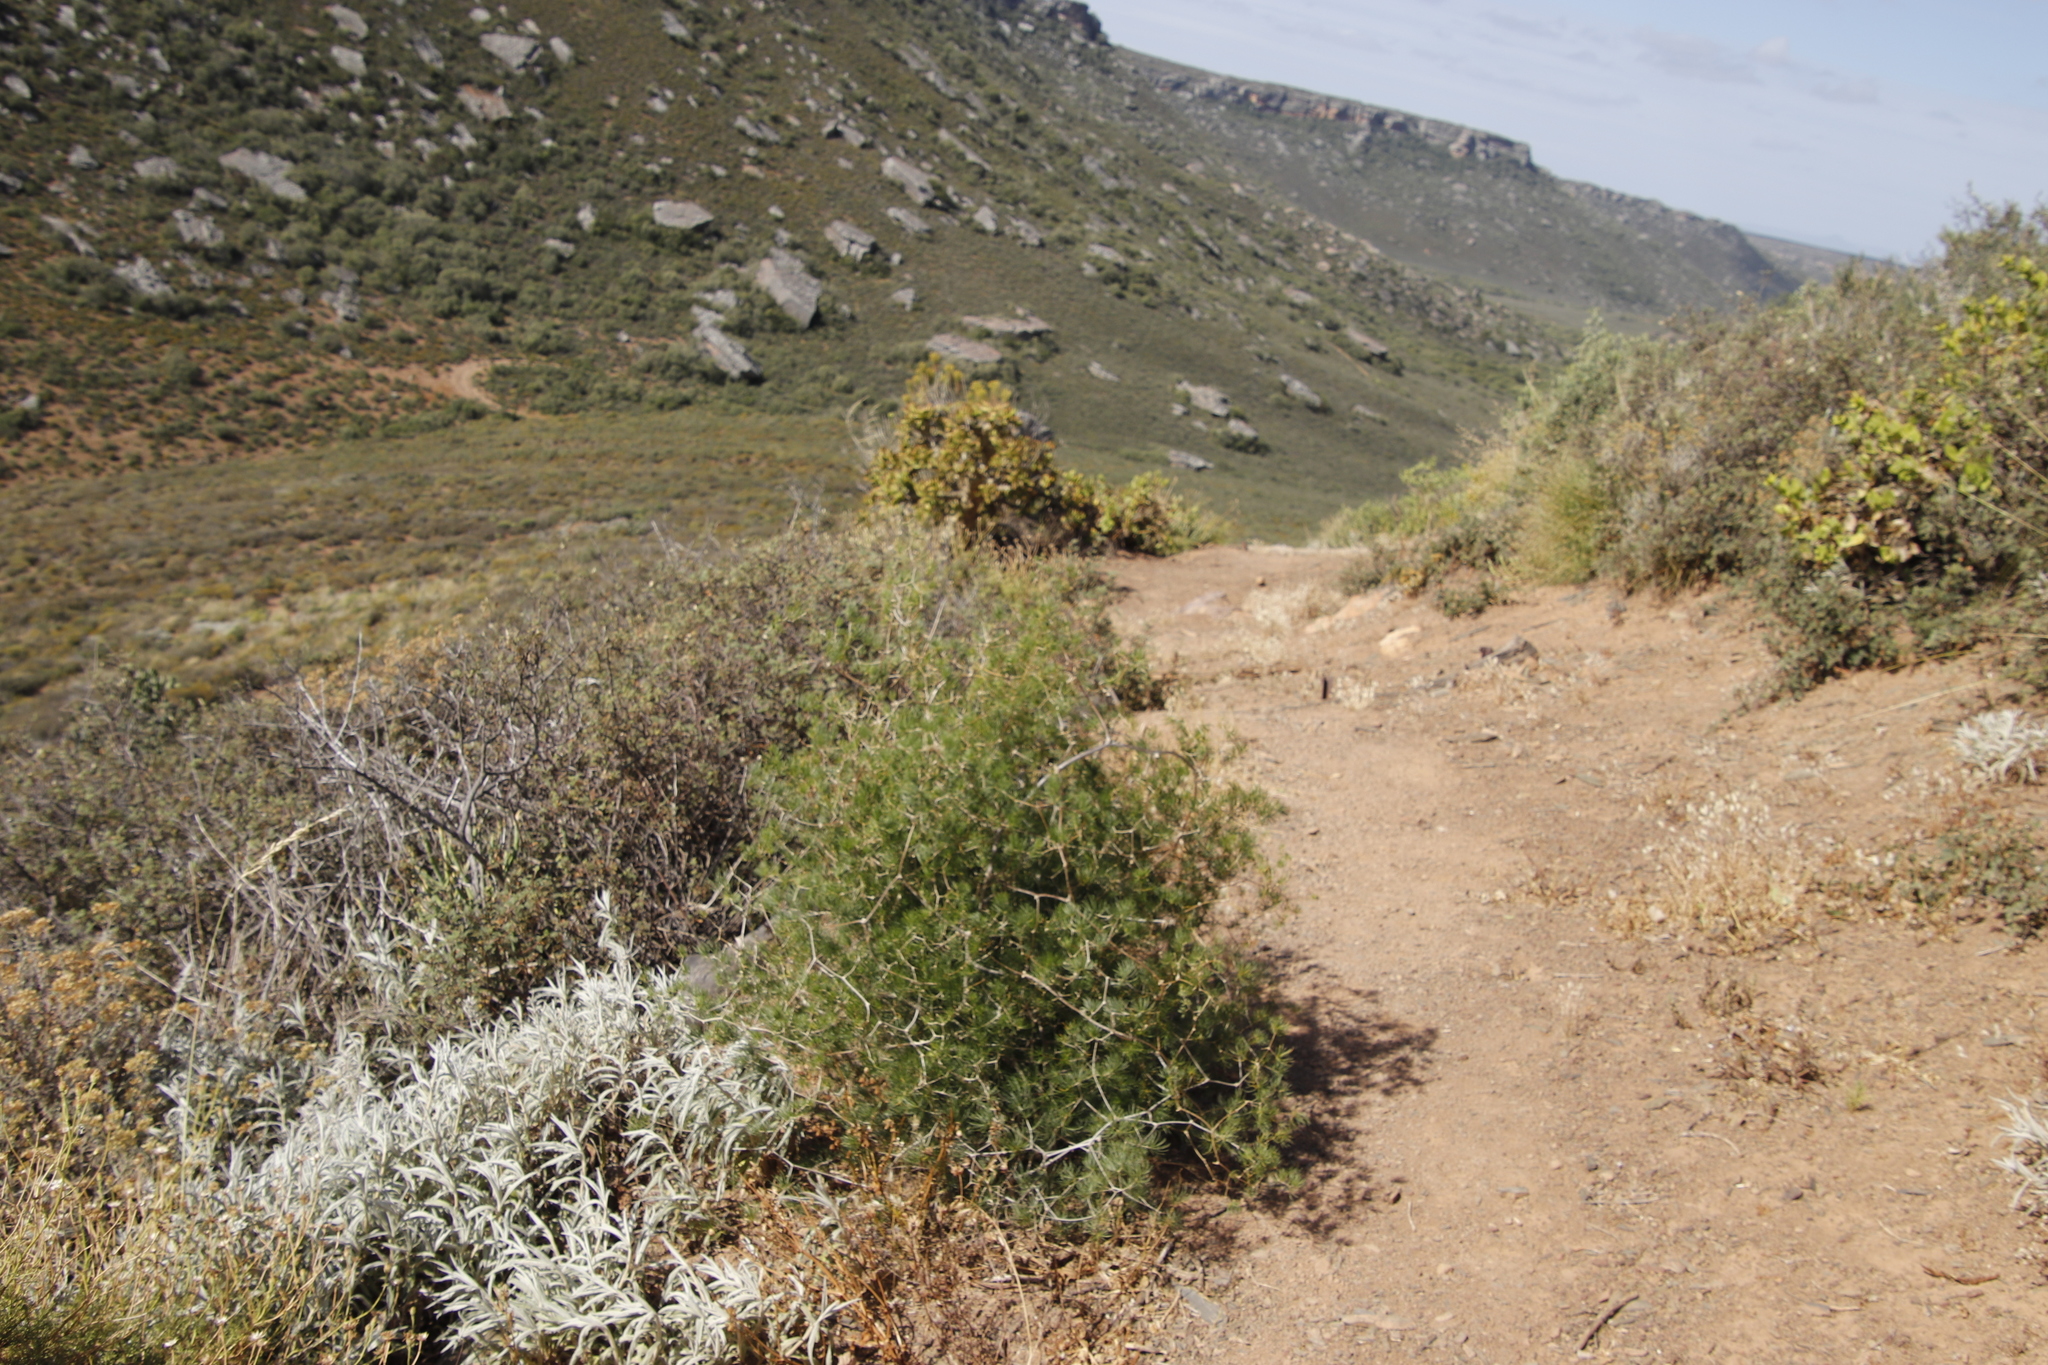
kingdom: Plantae
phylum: Tracheophyta
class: Liliopsida
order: Asparagales
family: Asparagaceae
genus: Asparagus
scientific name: Asparagus retrofractus
